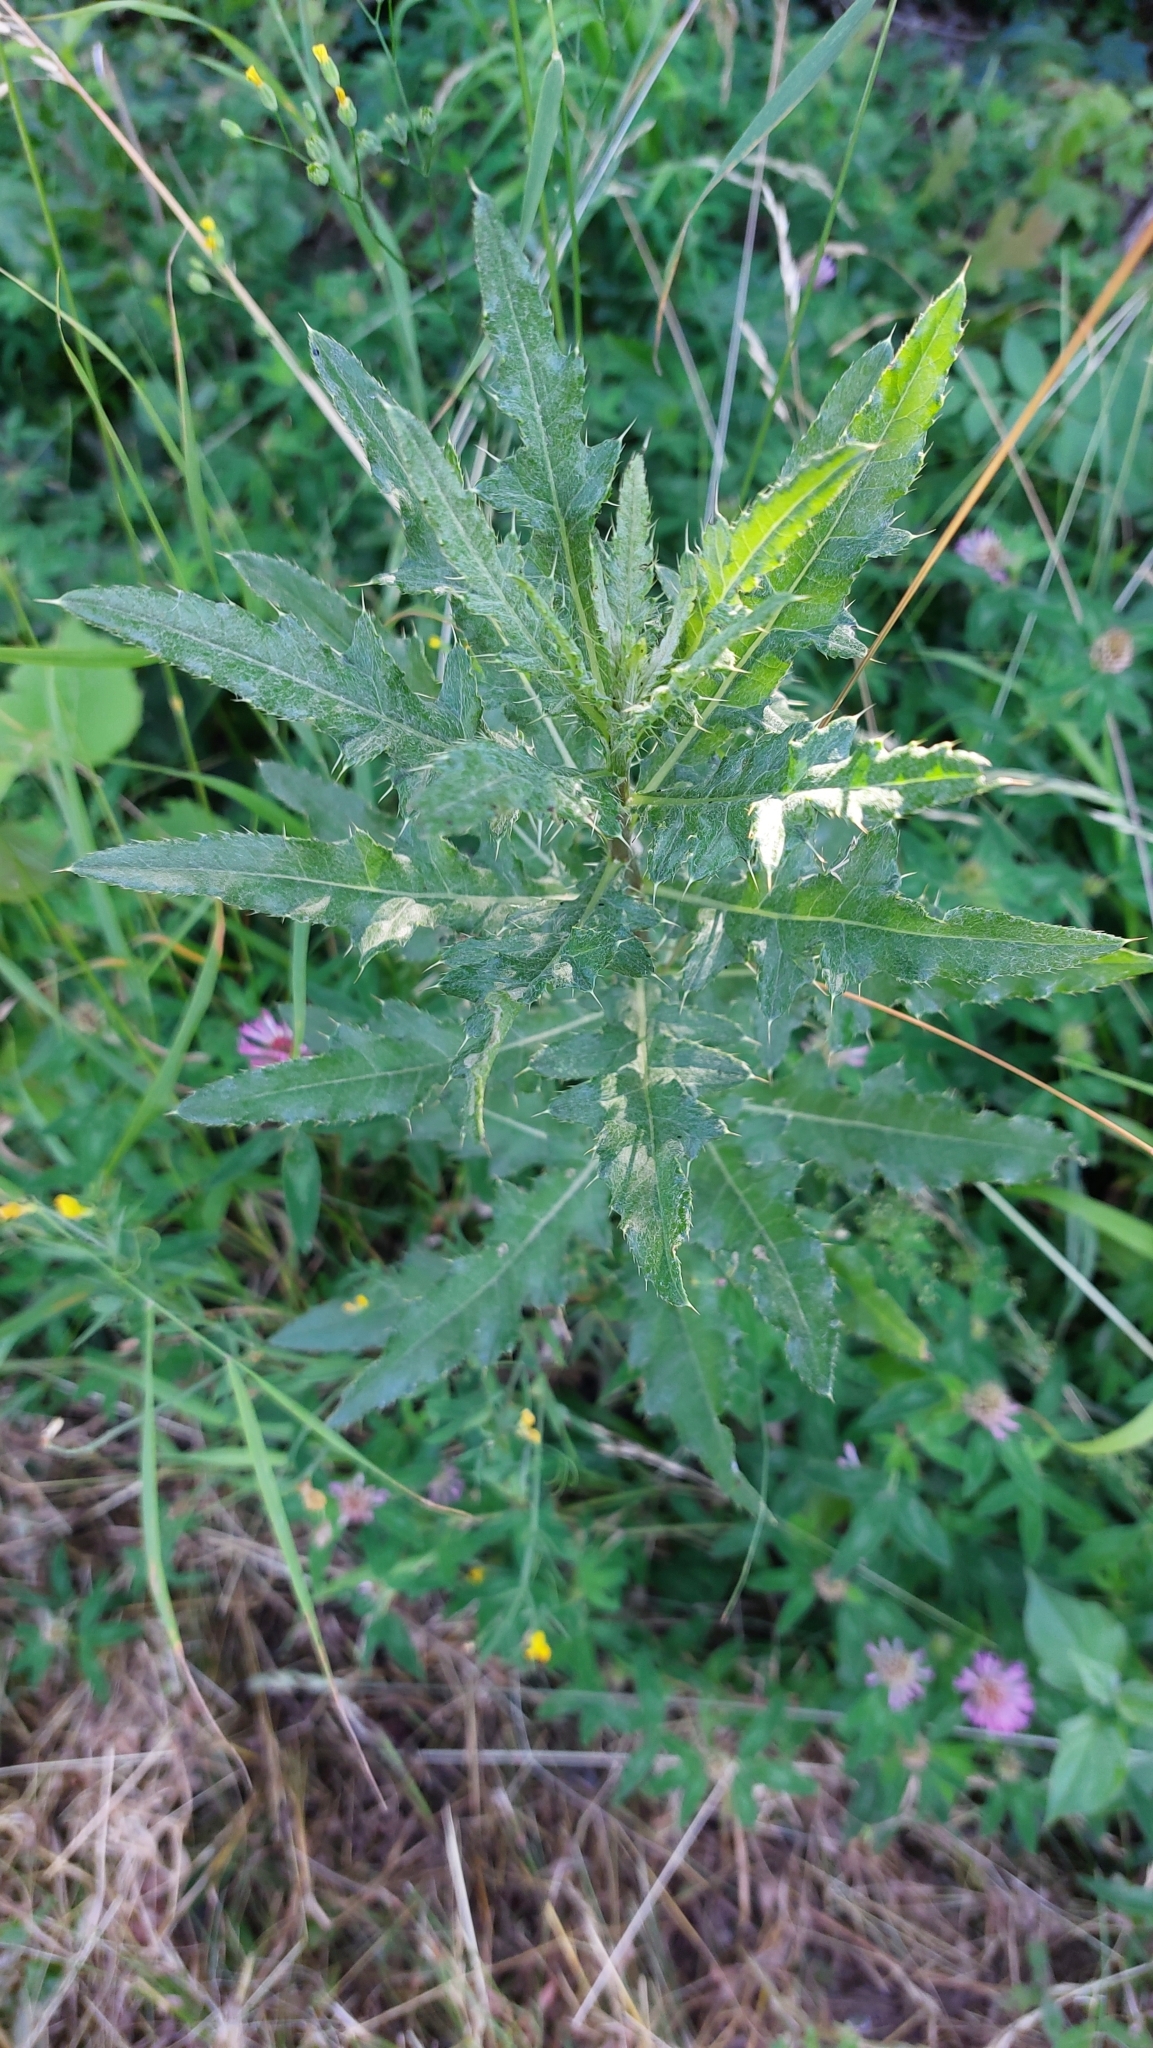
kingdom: Plantae
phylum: Tracheophyta
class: Magnoliopsida
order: Asterales
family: Asteraceae
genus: Cirsium
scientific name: Cirsium arvense
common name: Creeping thistle
